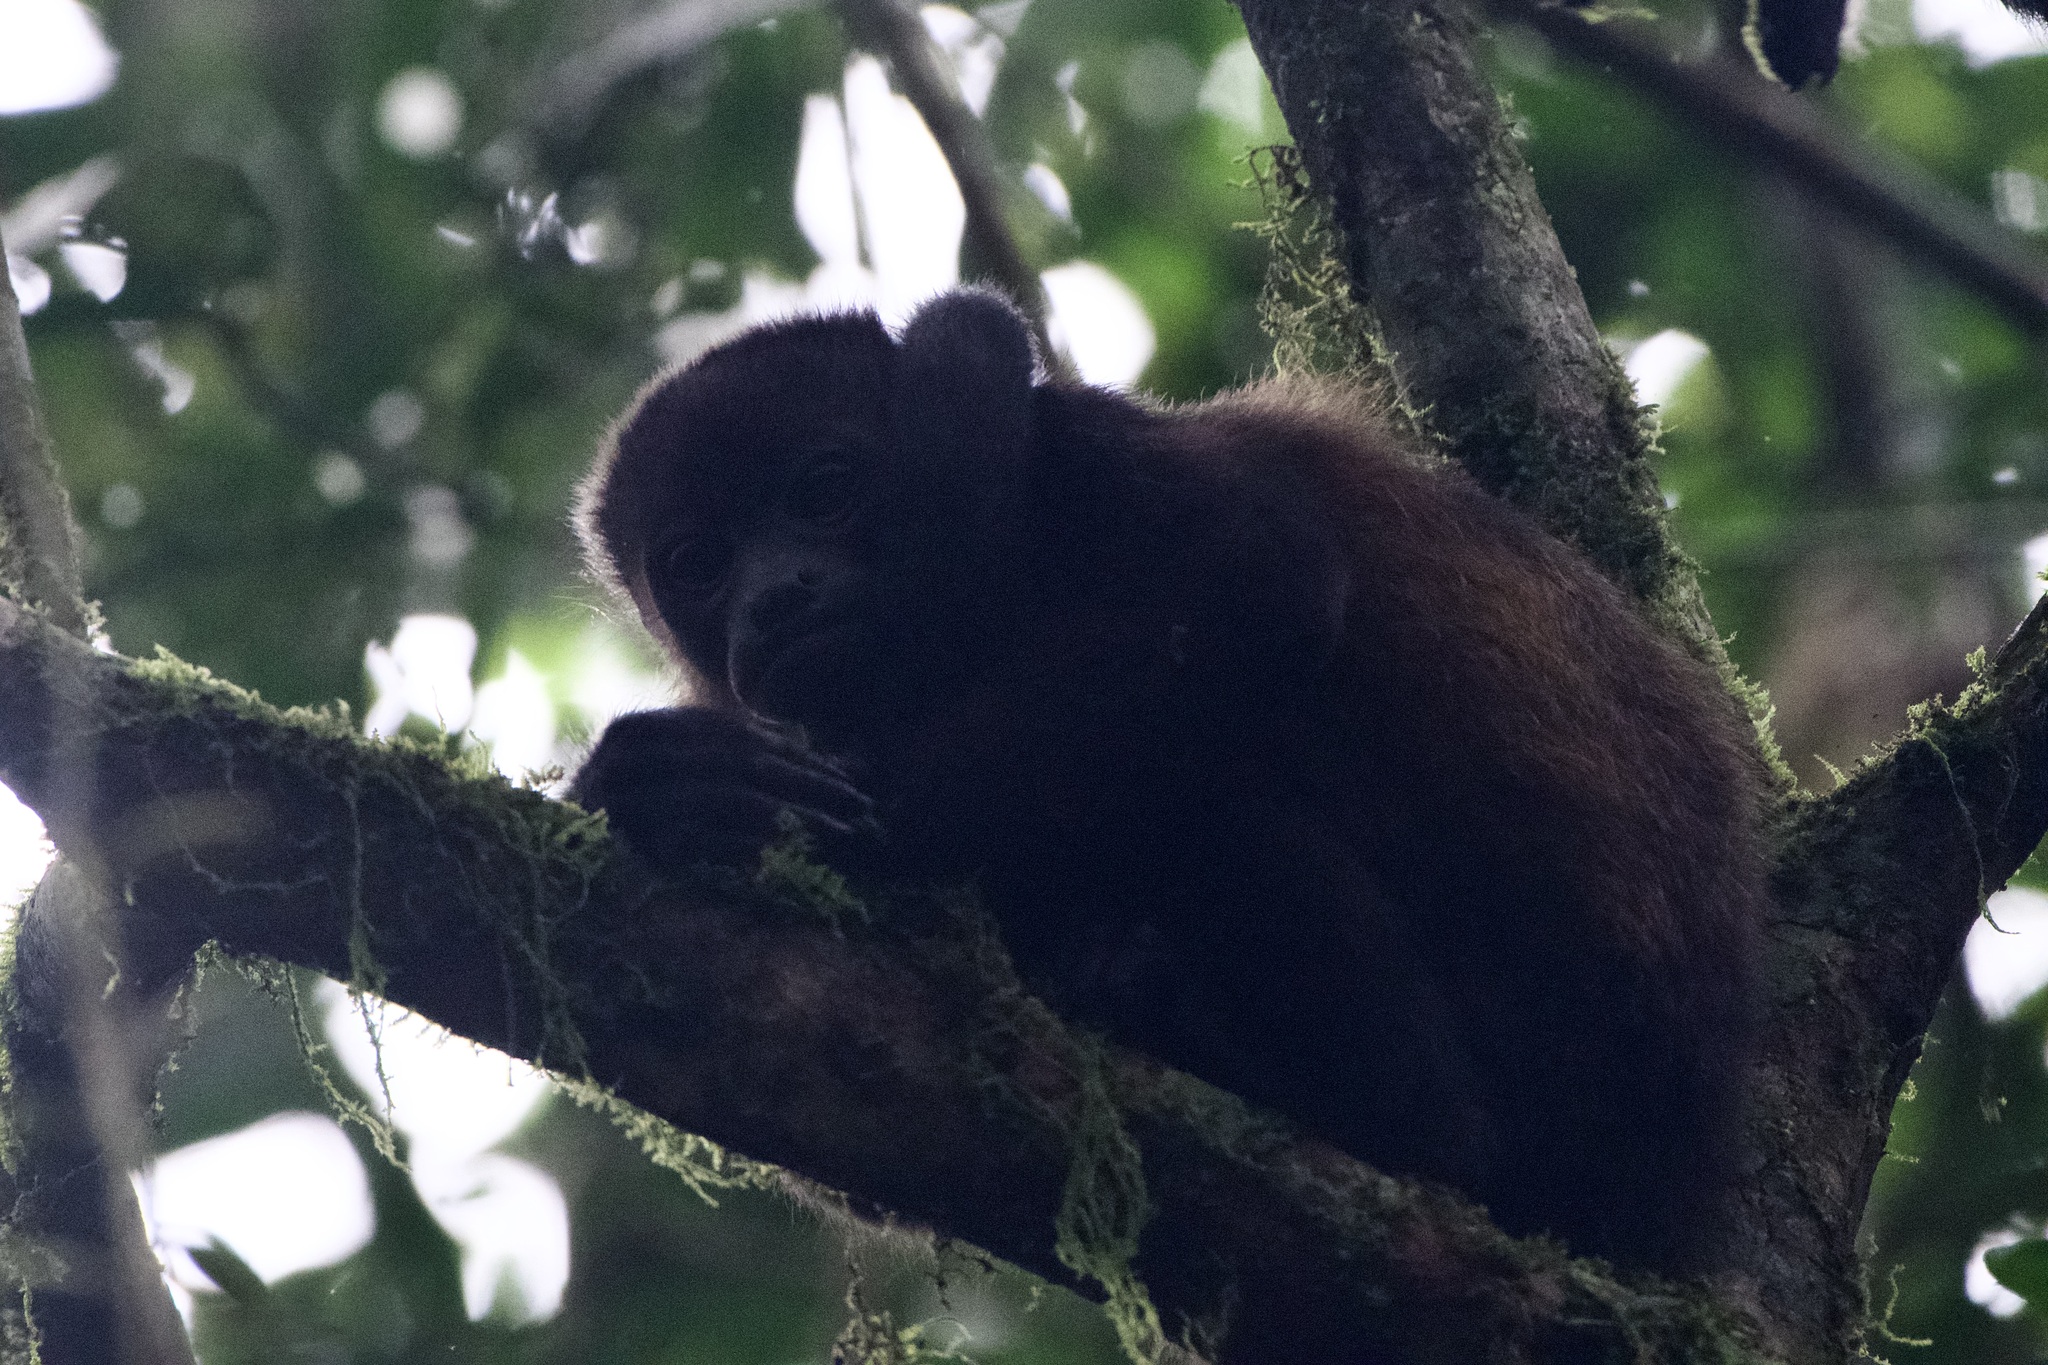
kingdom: Animalia
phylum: Chordata
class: Mammalia
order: Primates
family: Atelidae
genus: Alouatta
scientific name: Alouatta palliata
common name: Mantled howler
